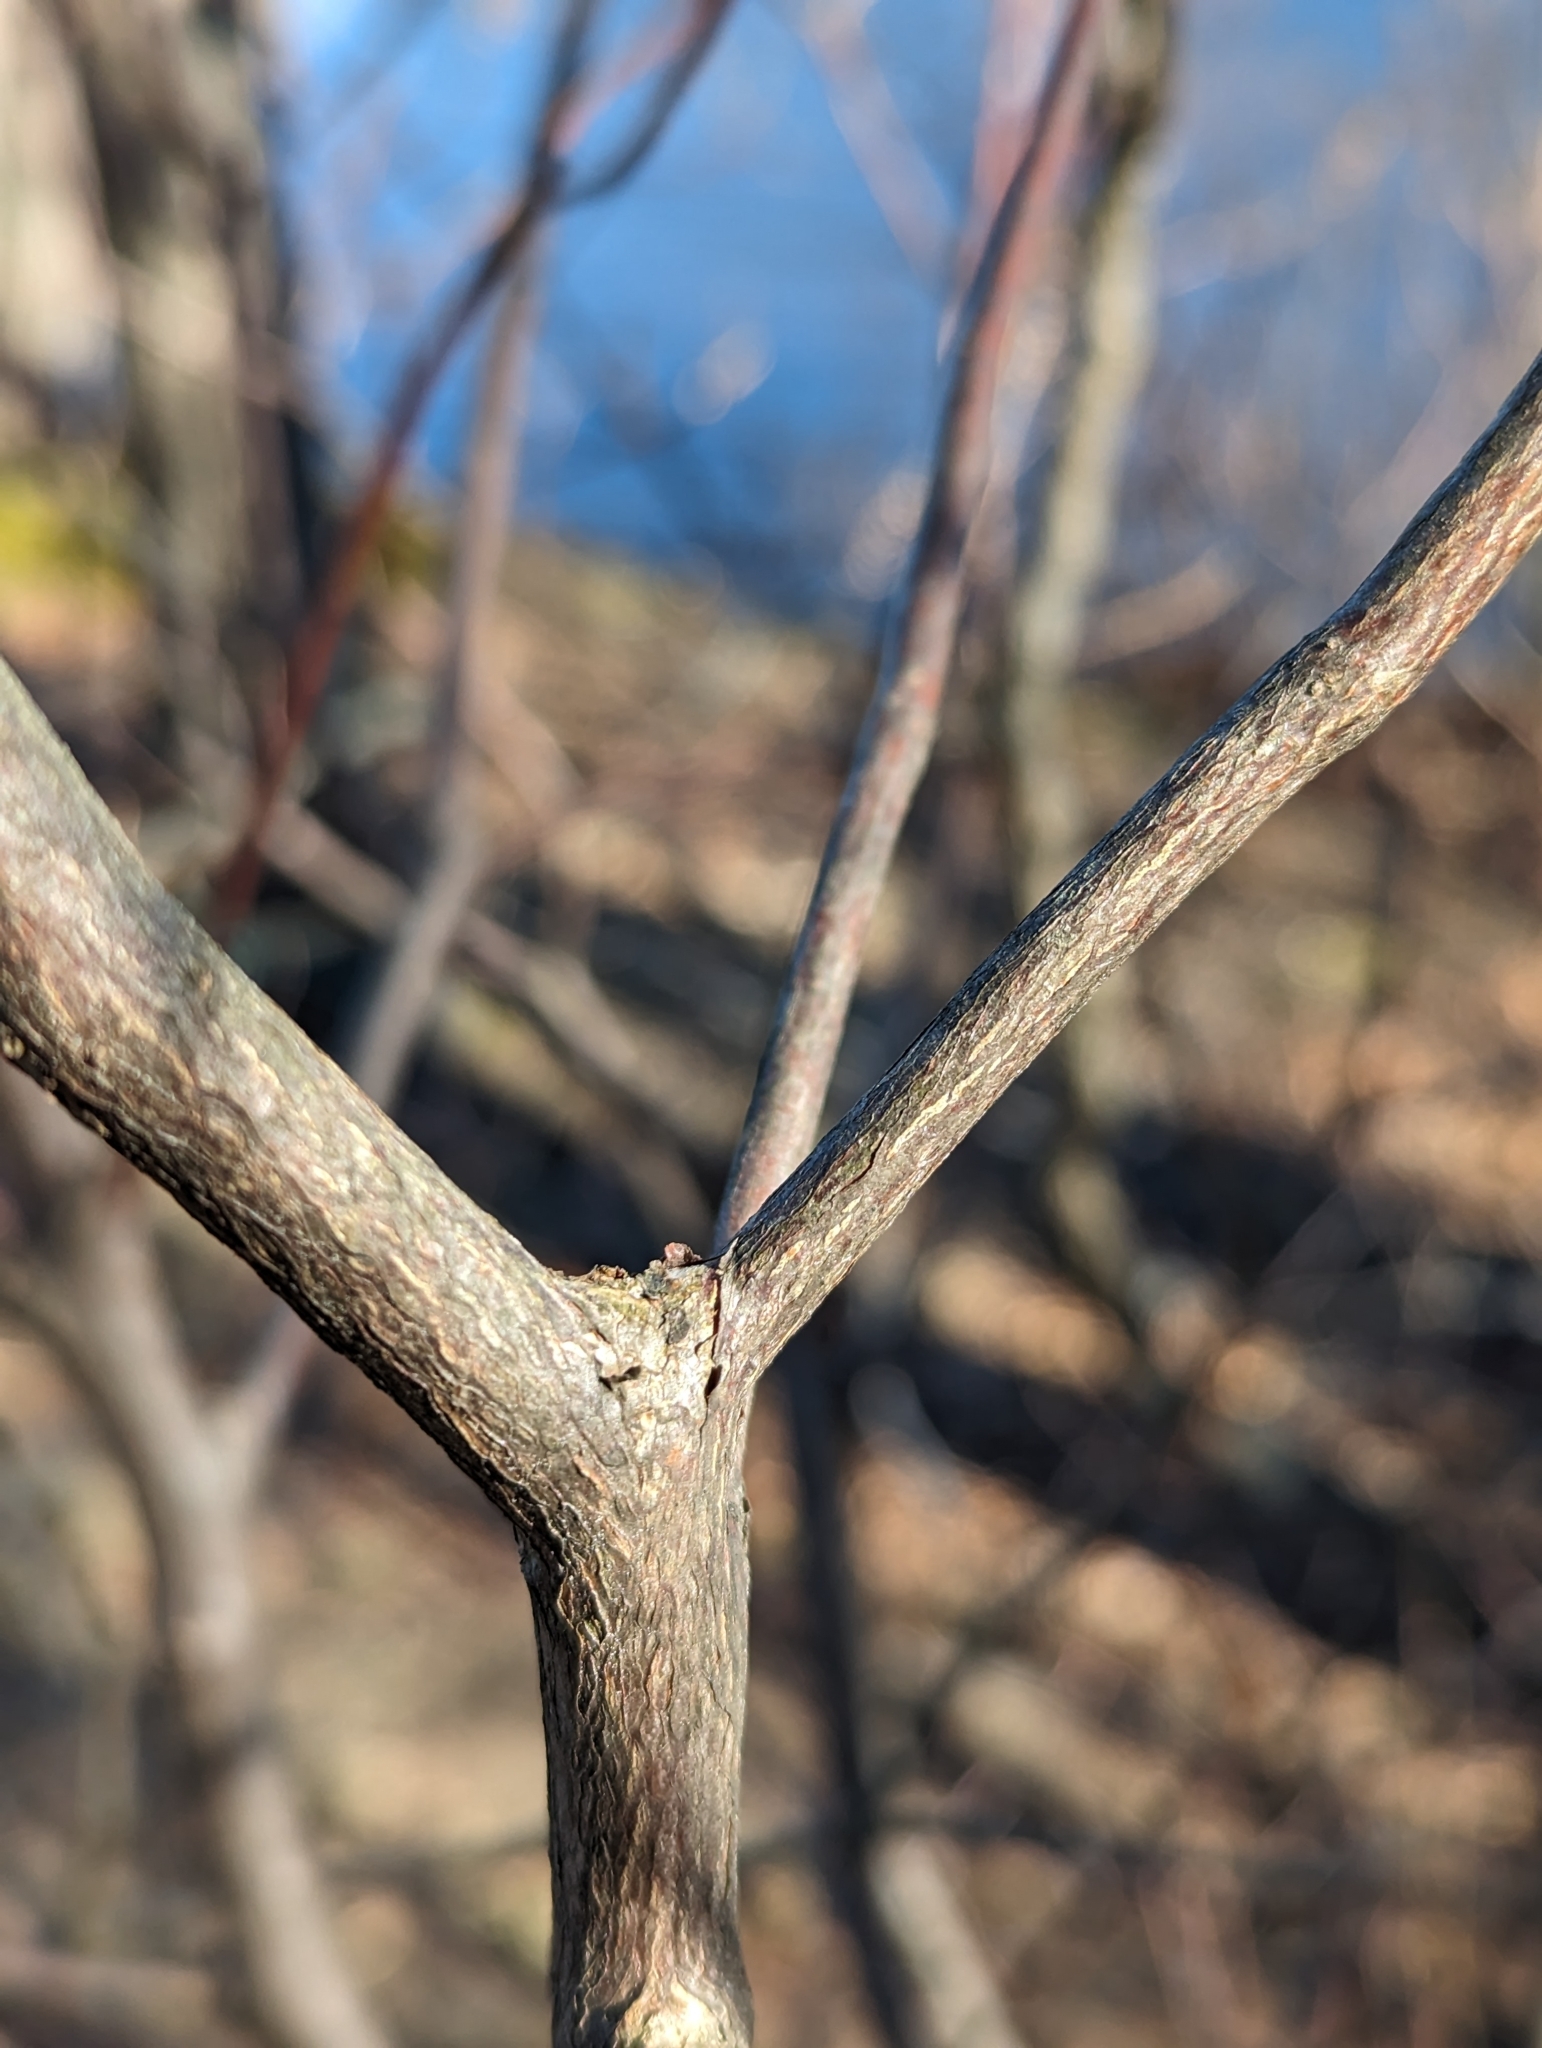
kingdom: Plantae
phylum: Tracheophyta
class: Magnoliopsida
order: Ericales
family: Clethraceae
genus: Clethra
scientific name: Clethra alnifolia
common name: Sweet pepperbush
